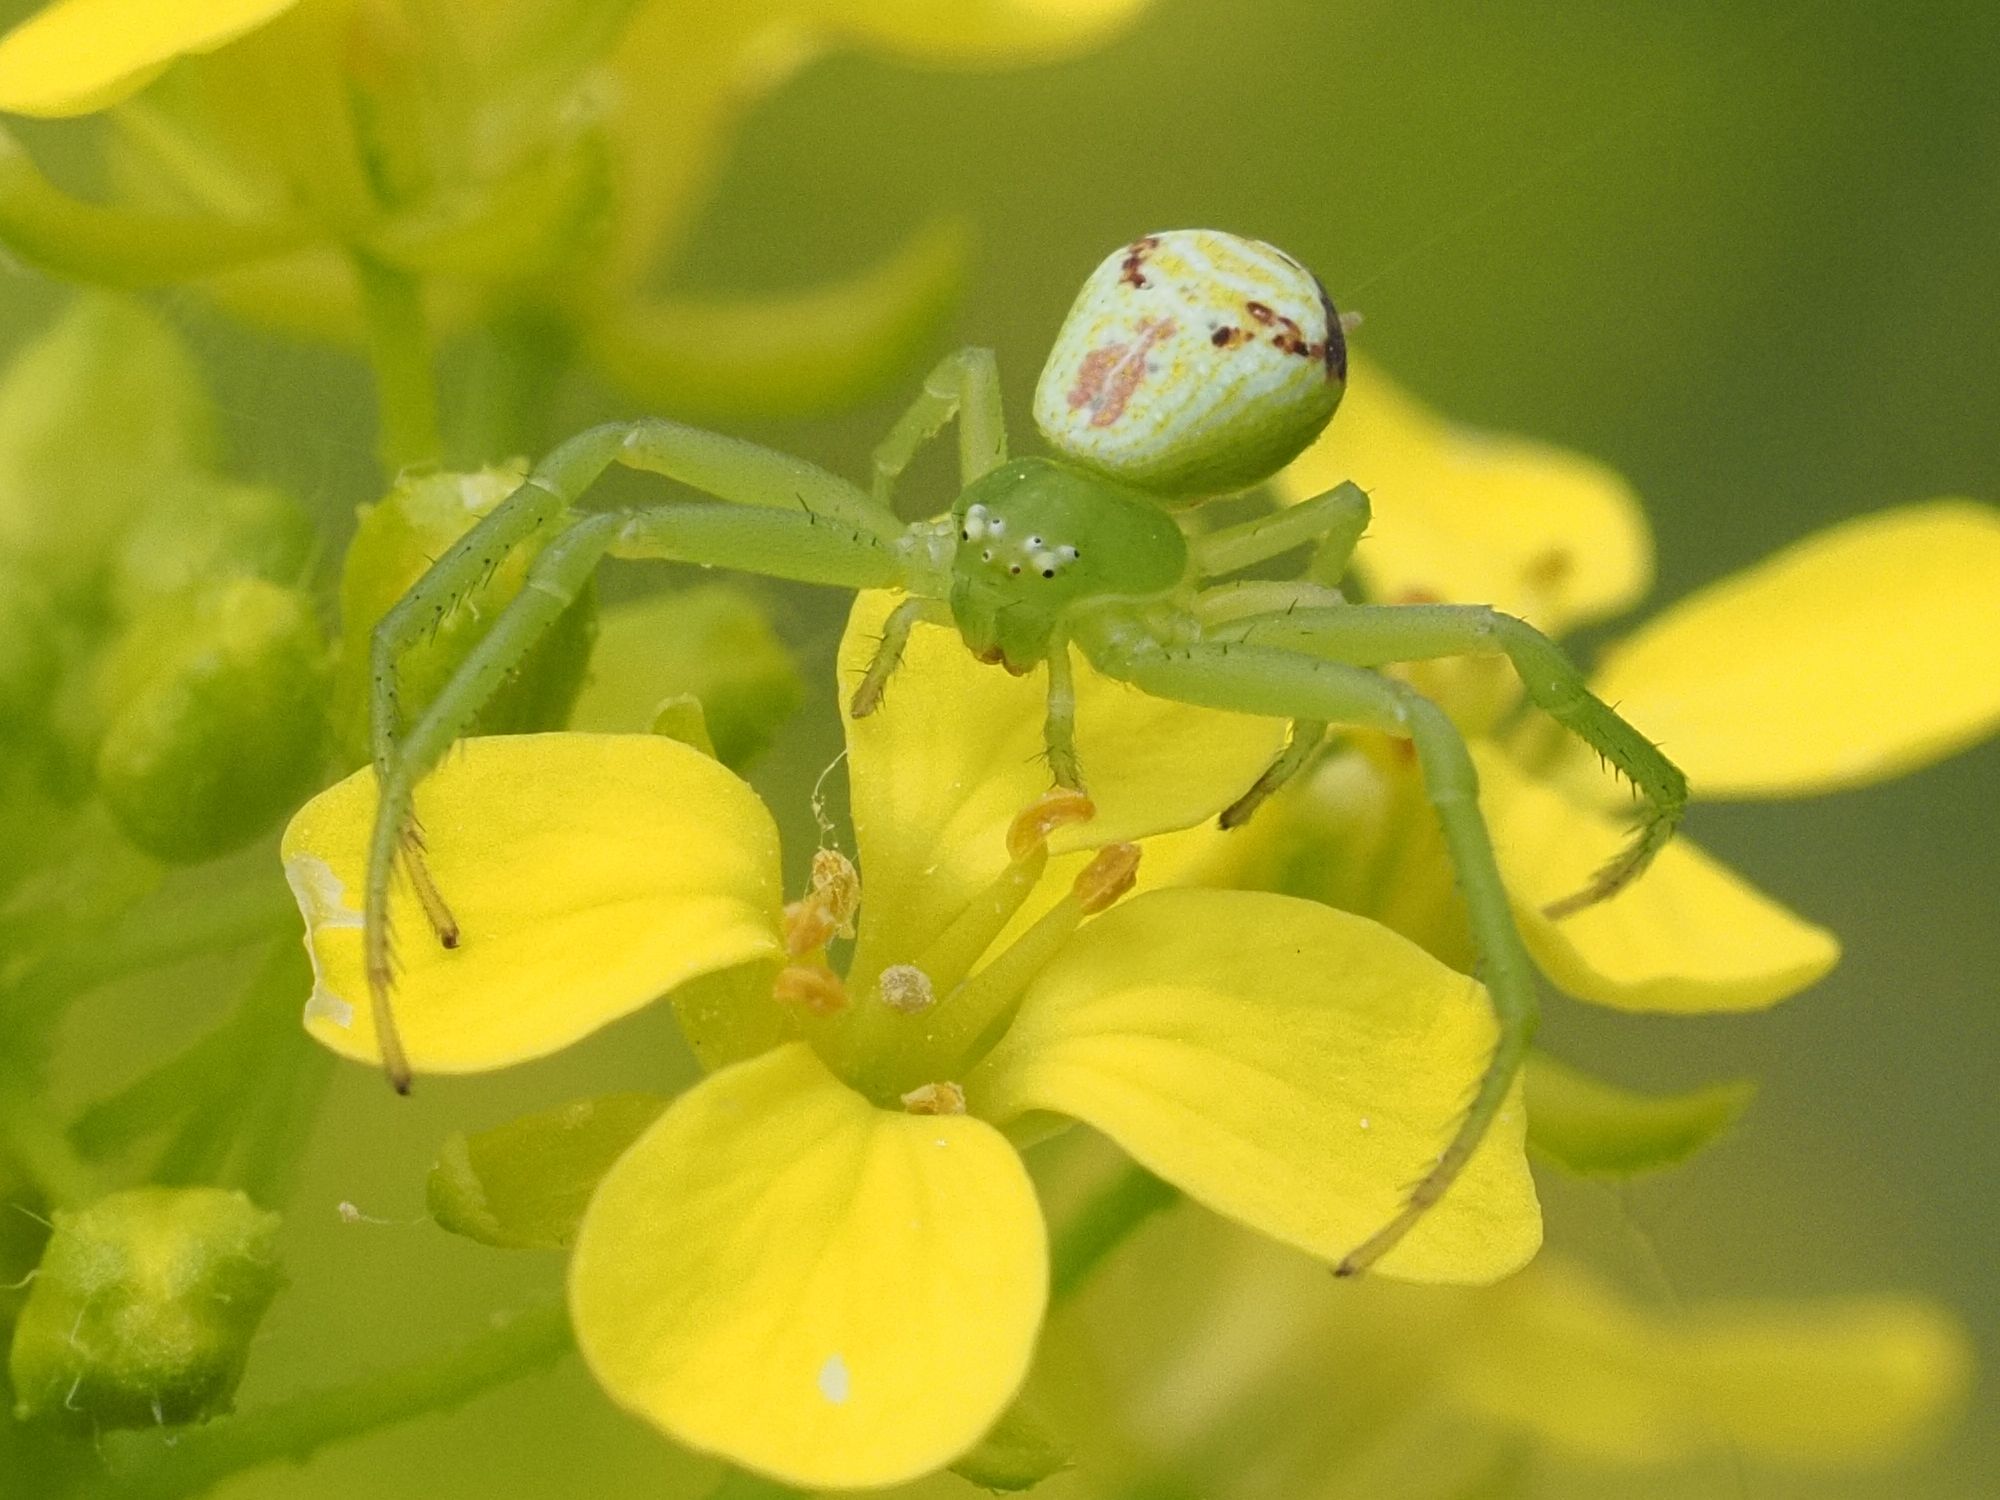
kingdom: Animalia
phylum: Arthropoda
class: Arachnida
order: Araneae
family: Thomisidae
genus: Ebrechtella
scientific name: Ebrechtella tricuspidata
